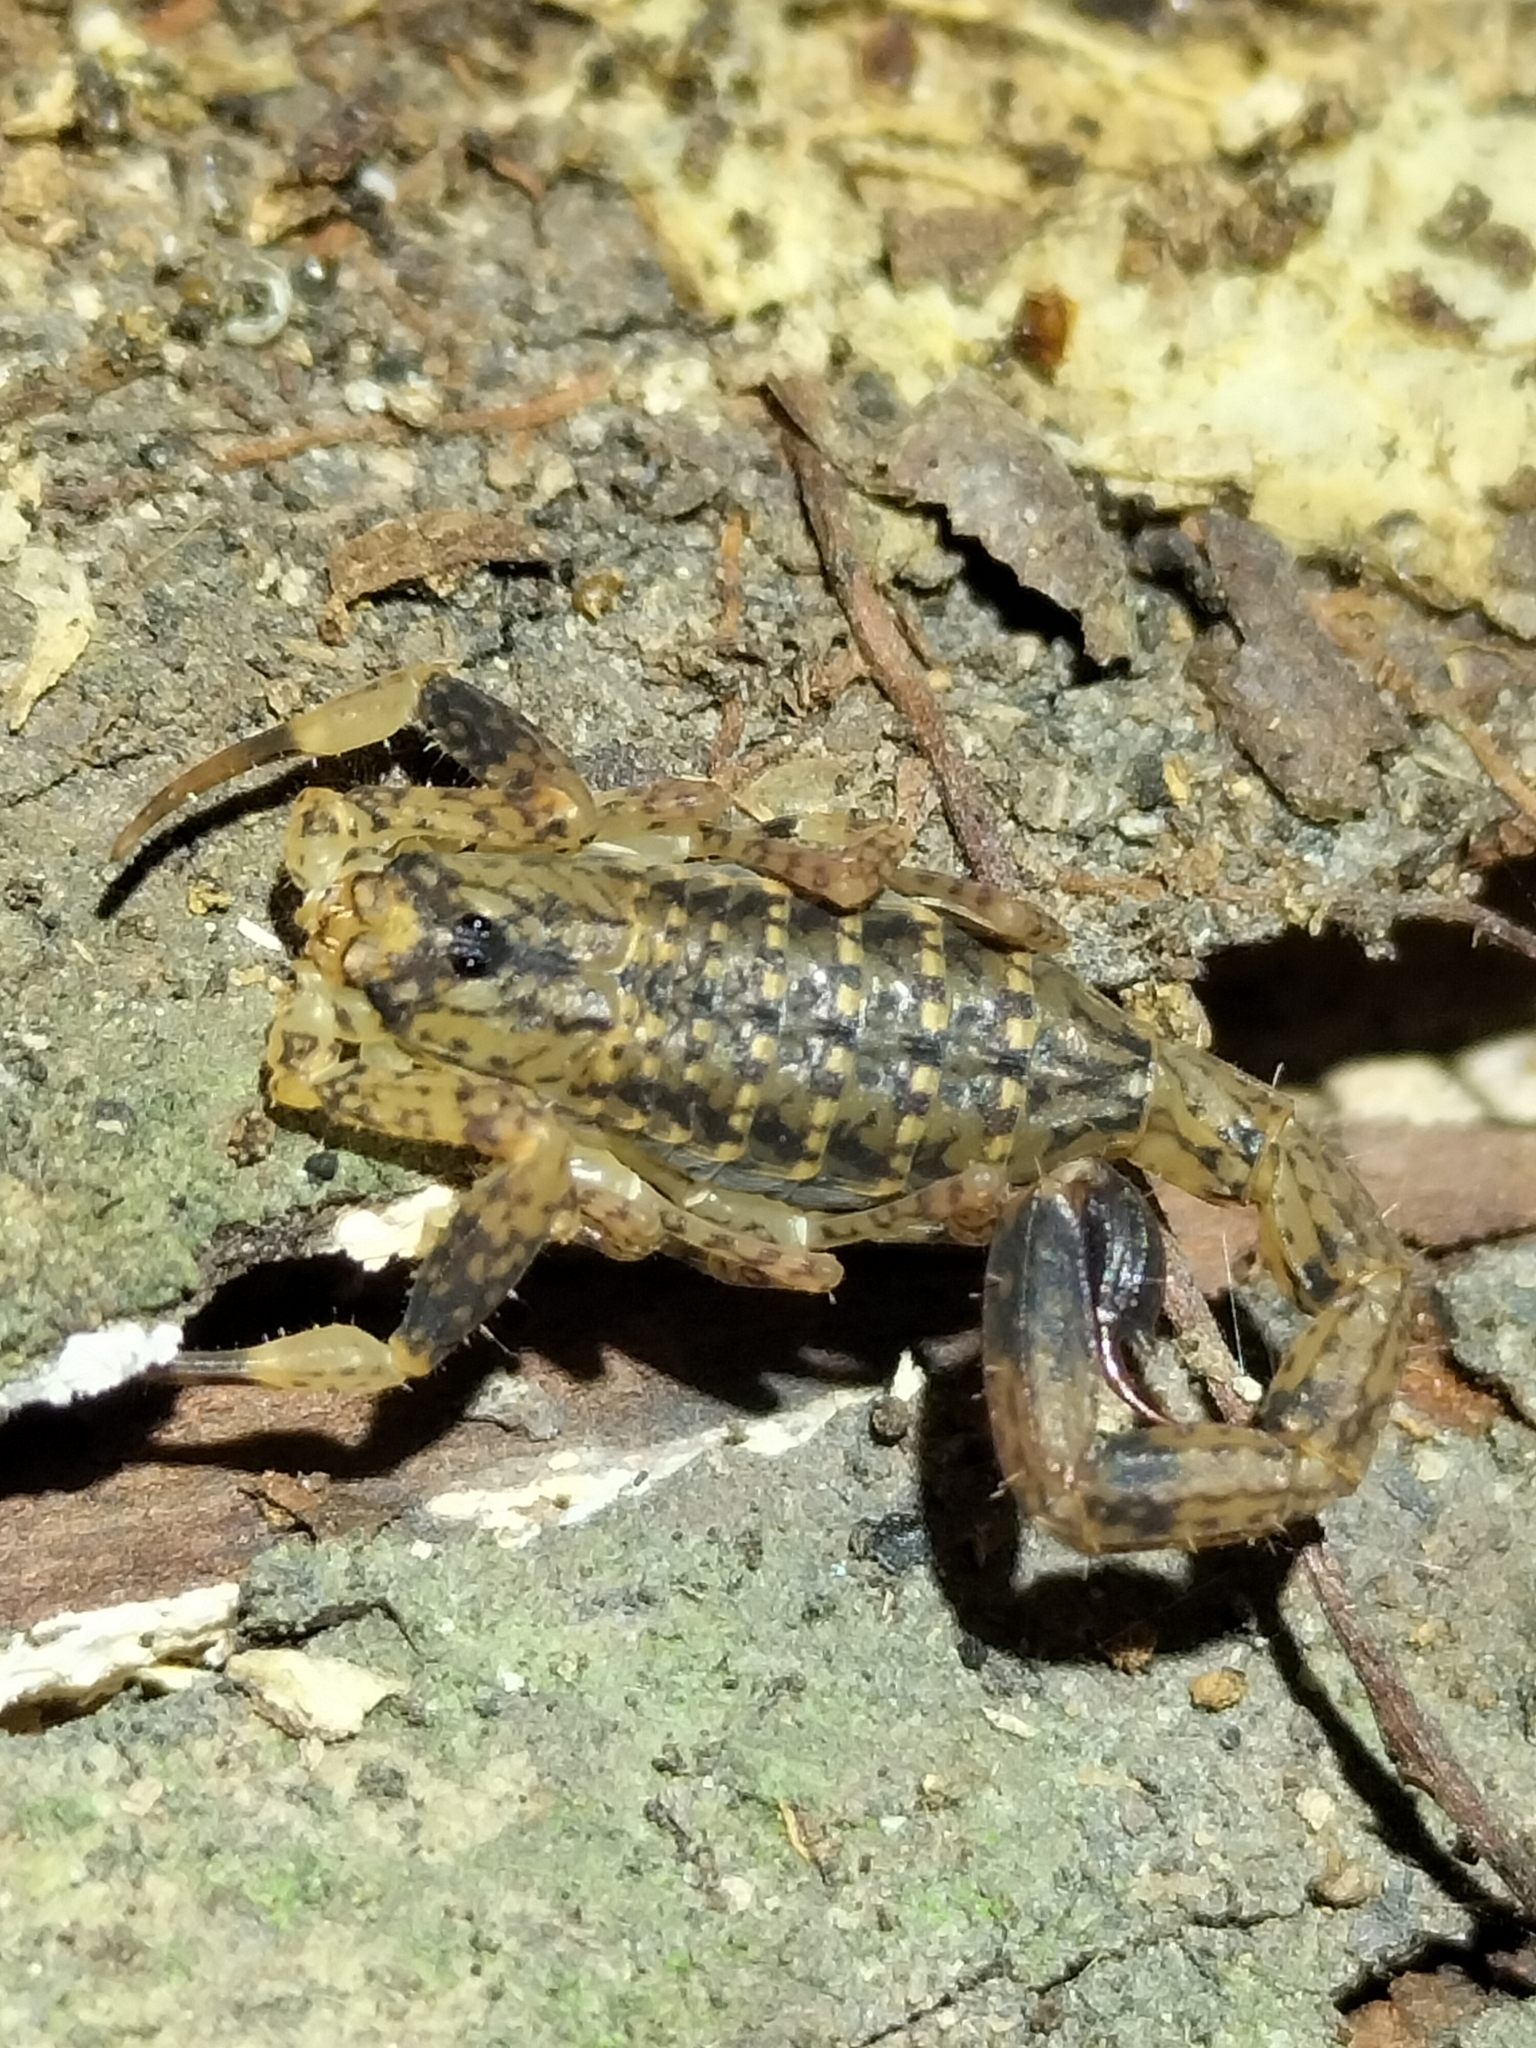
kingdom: Animalia
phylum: Arthropoda
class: Arachnida
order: Scorpiones
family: Buthidae
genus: Lychas
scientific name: Lychas variatus
